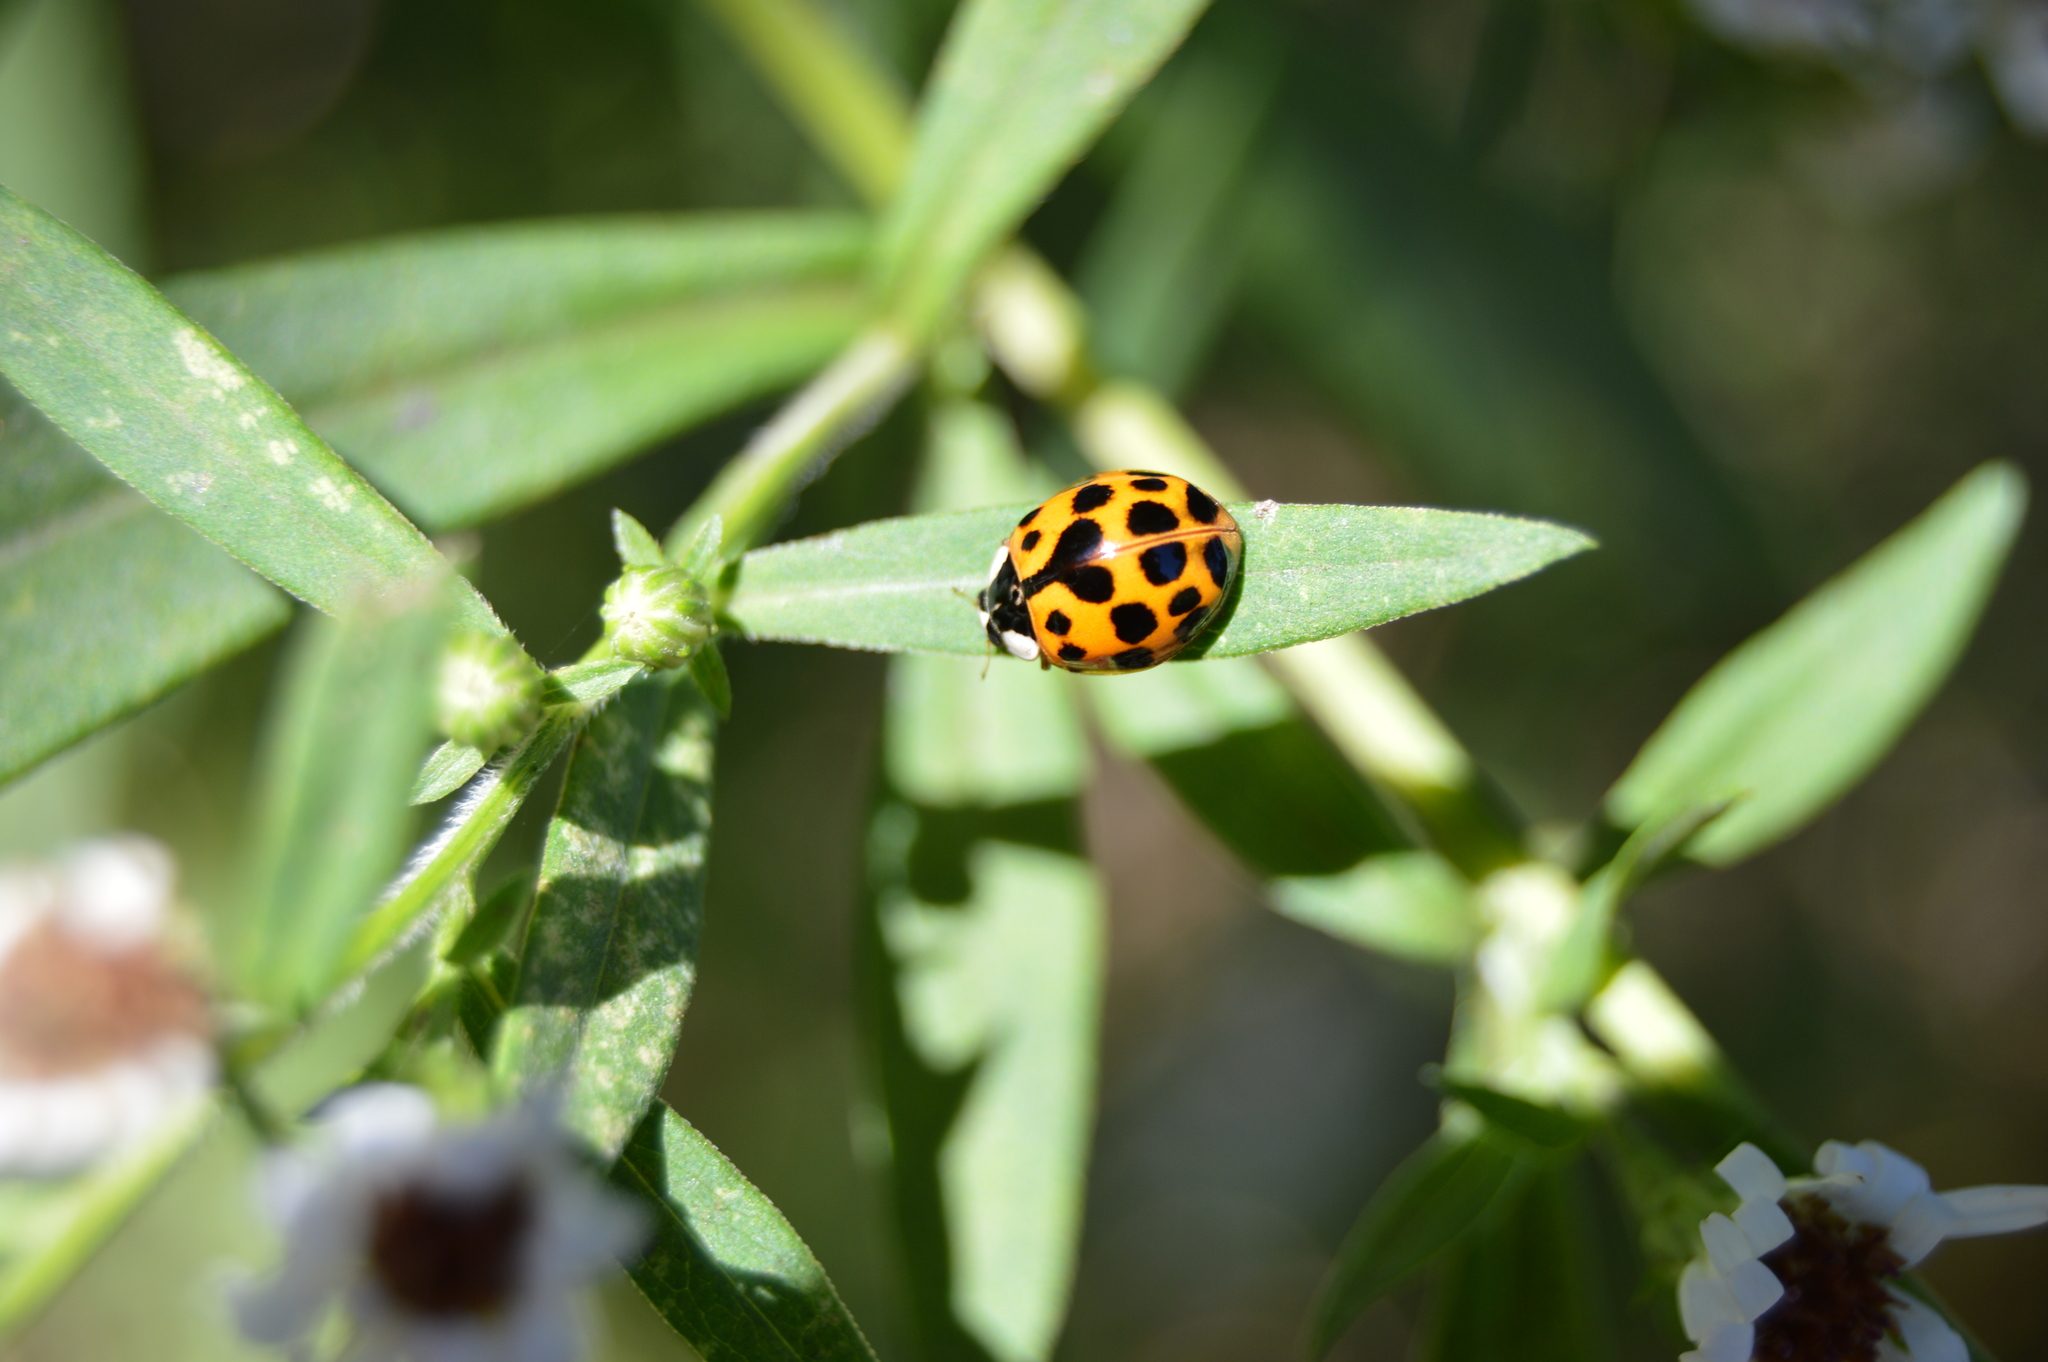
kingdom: Animalia
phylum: Arthropoda
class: Insecta
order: Coleoptera
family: Coccinellidae
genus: Harmonia
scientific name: Harmonia axyridis
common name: Harlequin ladybird
